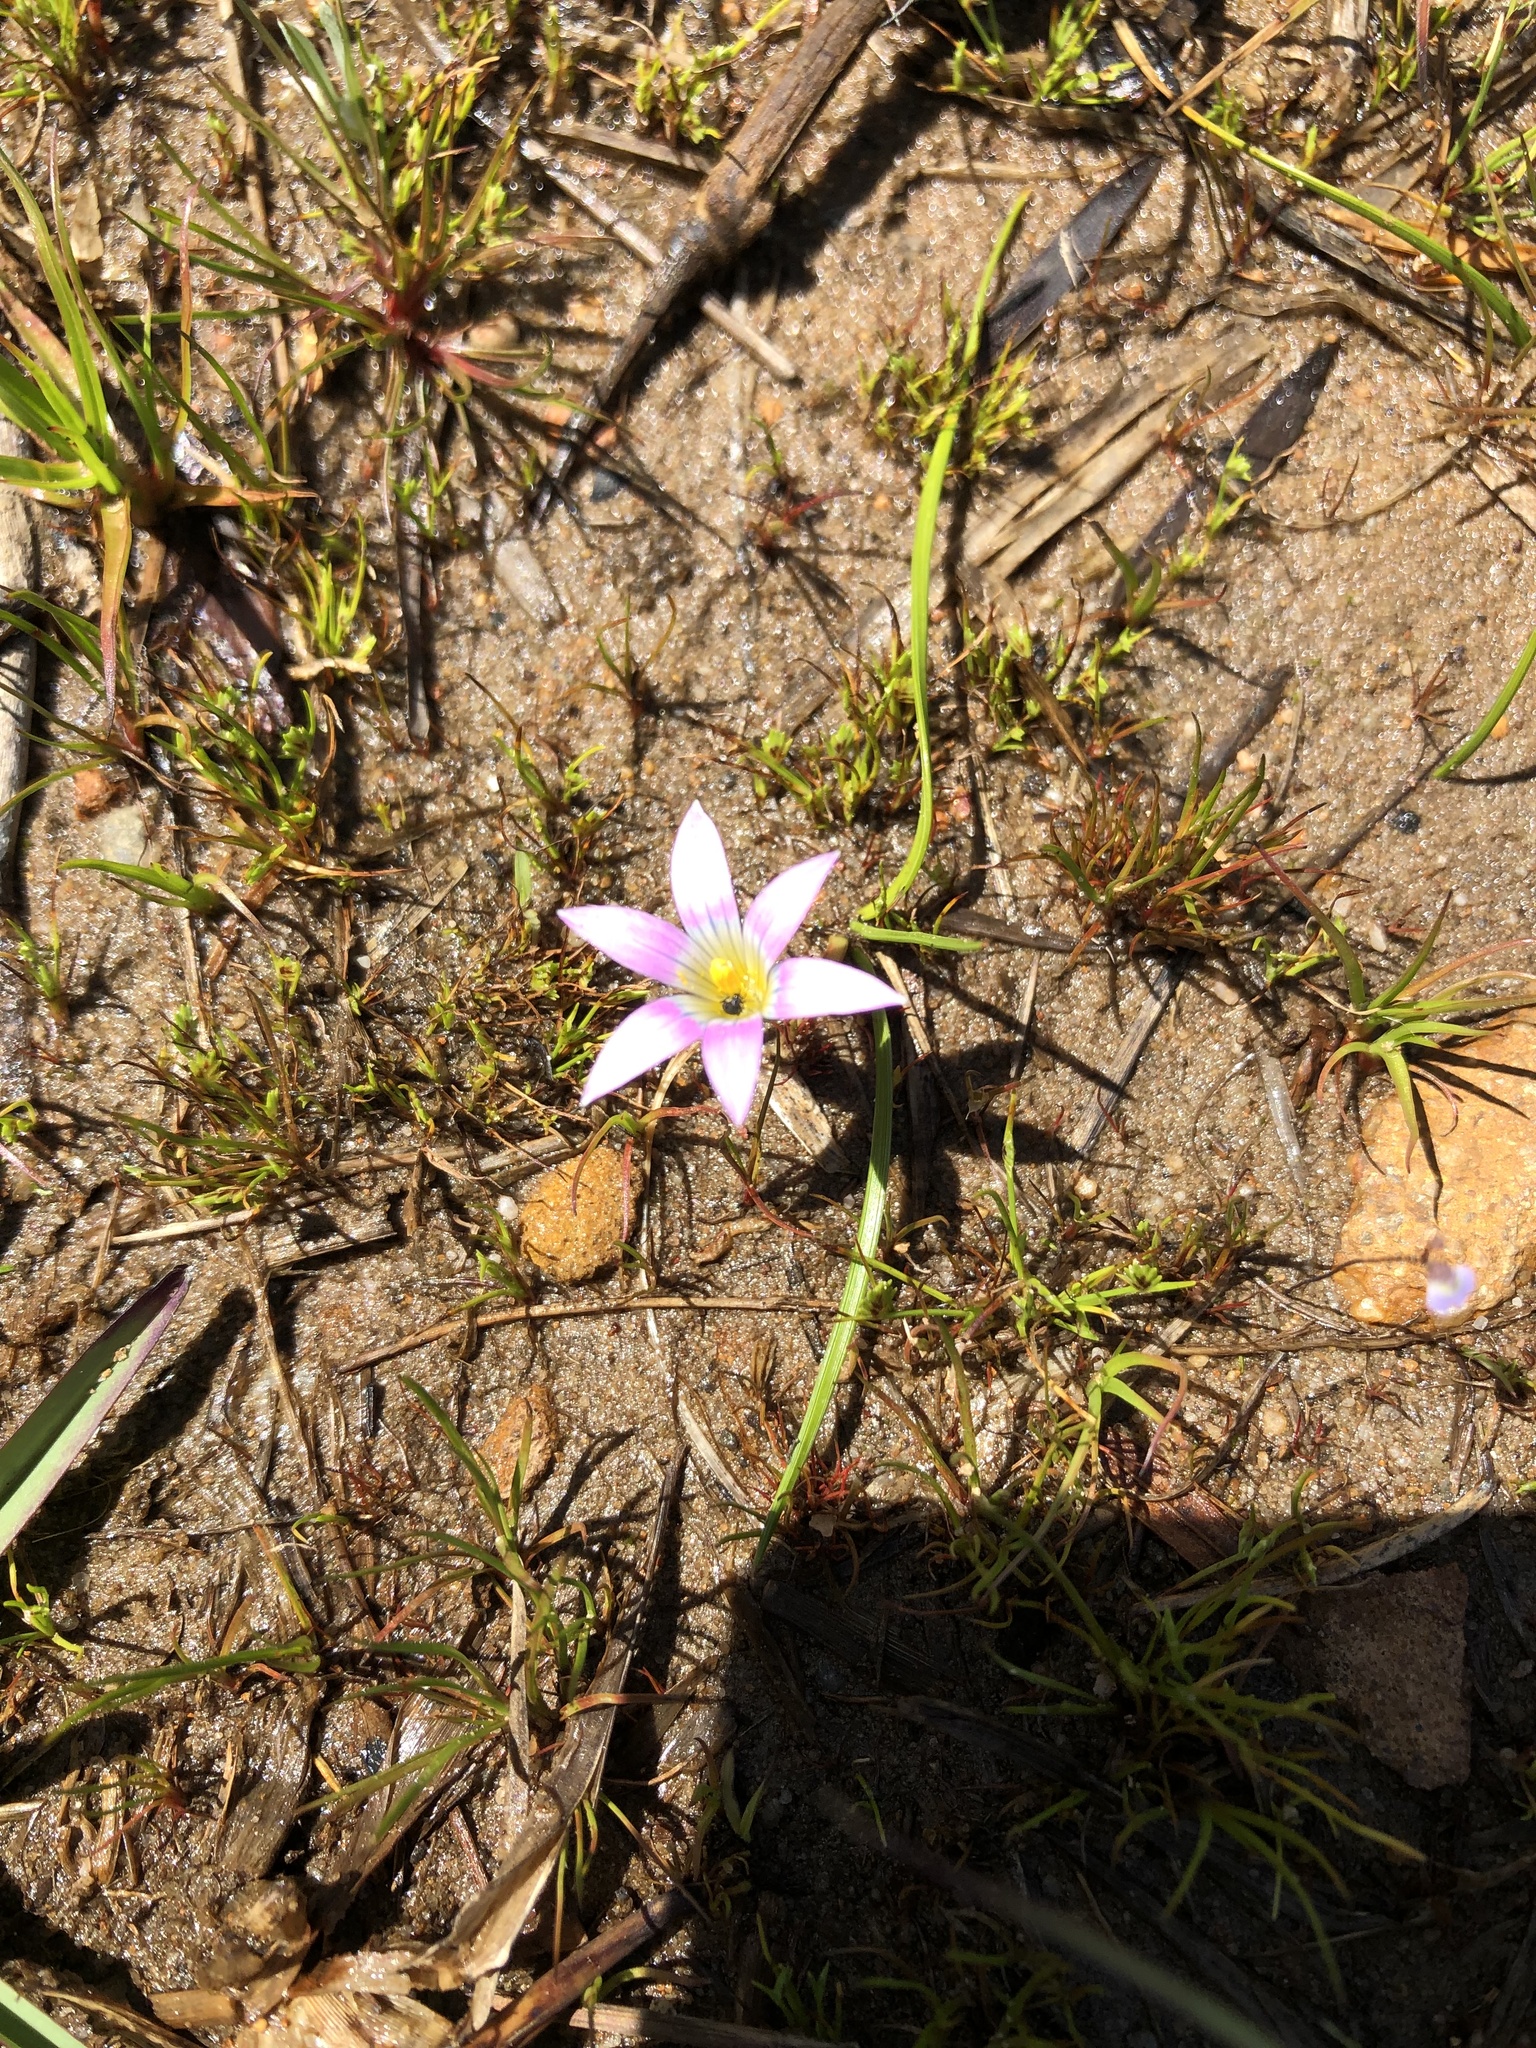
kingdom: Plantae
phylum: Tracheophyta
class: Liliopsida
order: Asparagales
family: Iridaceae
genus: Romulea
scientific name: Romulea rosea
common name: Oniongrass
